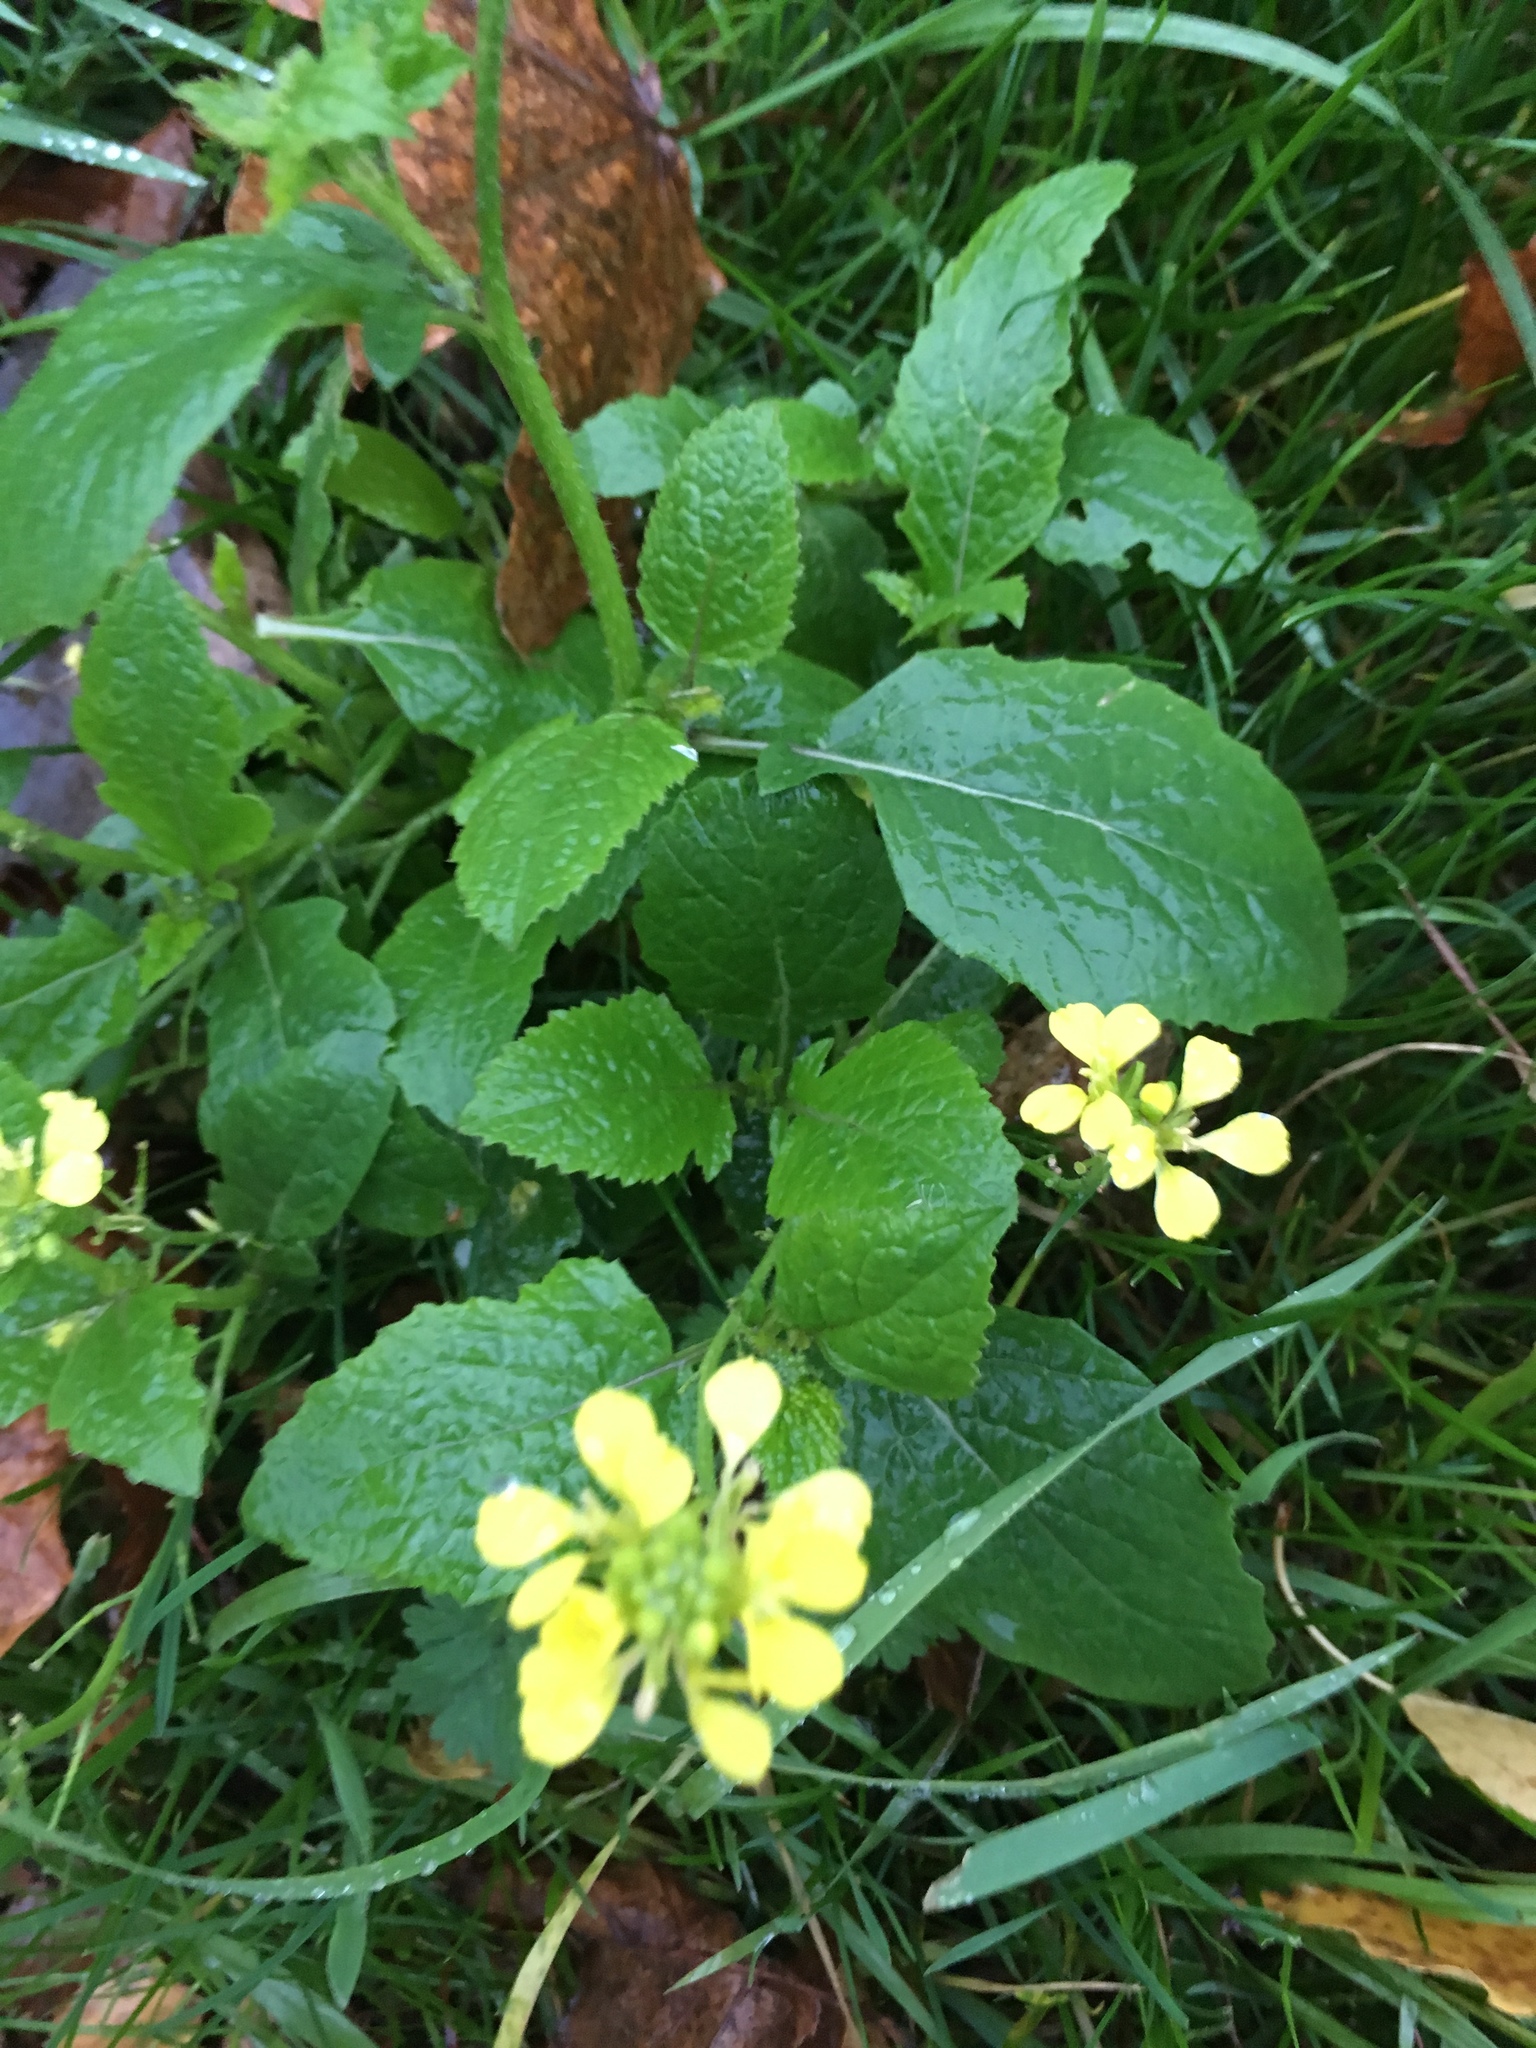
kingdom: Plantae
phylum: Tracheophyta
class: Magnoliopsida
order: Brassicales
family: Brassicaceae
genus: Sinapis
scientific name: Sinapis arvensis
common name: Charlock
